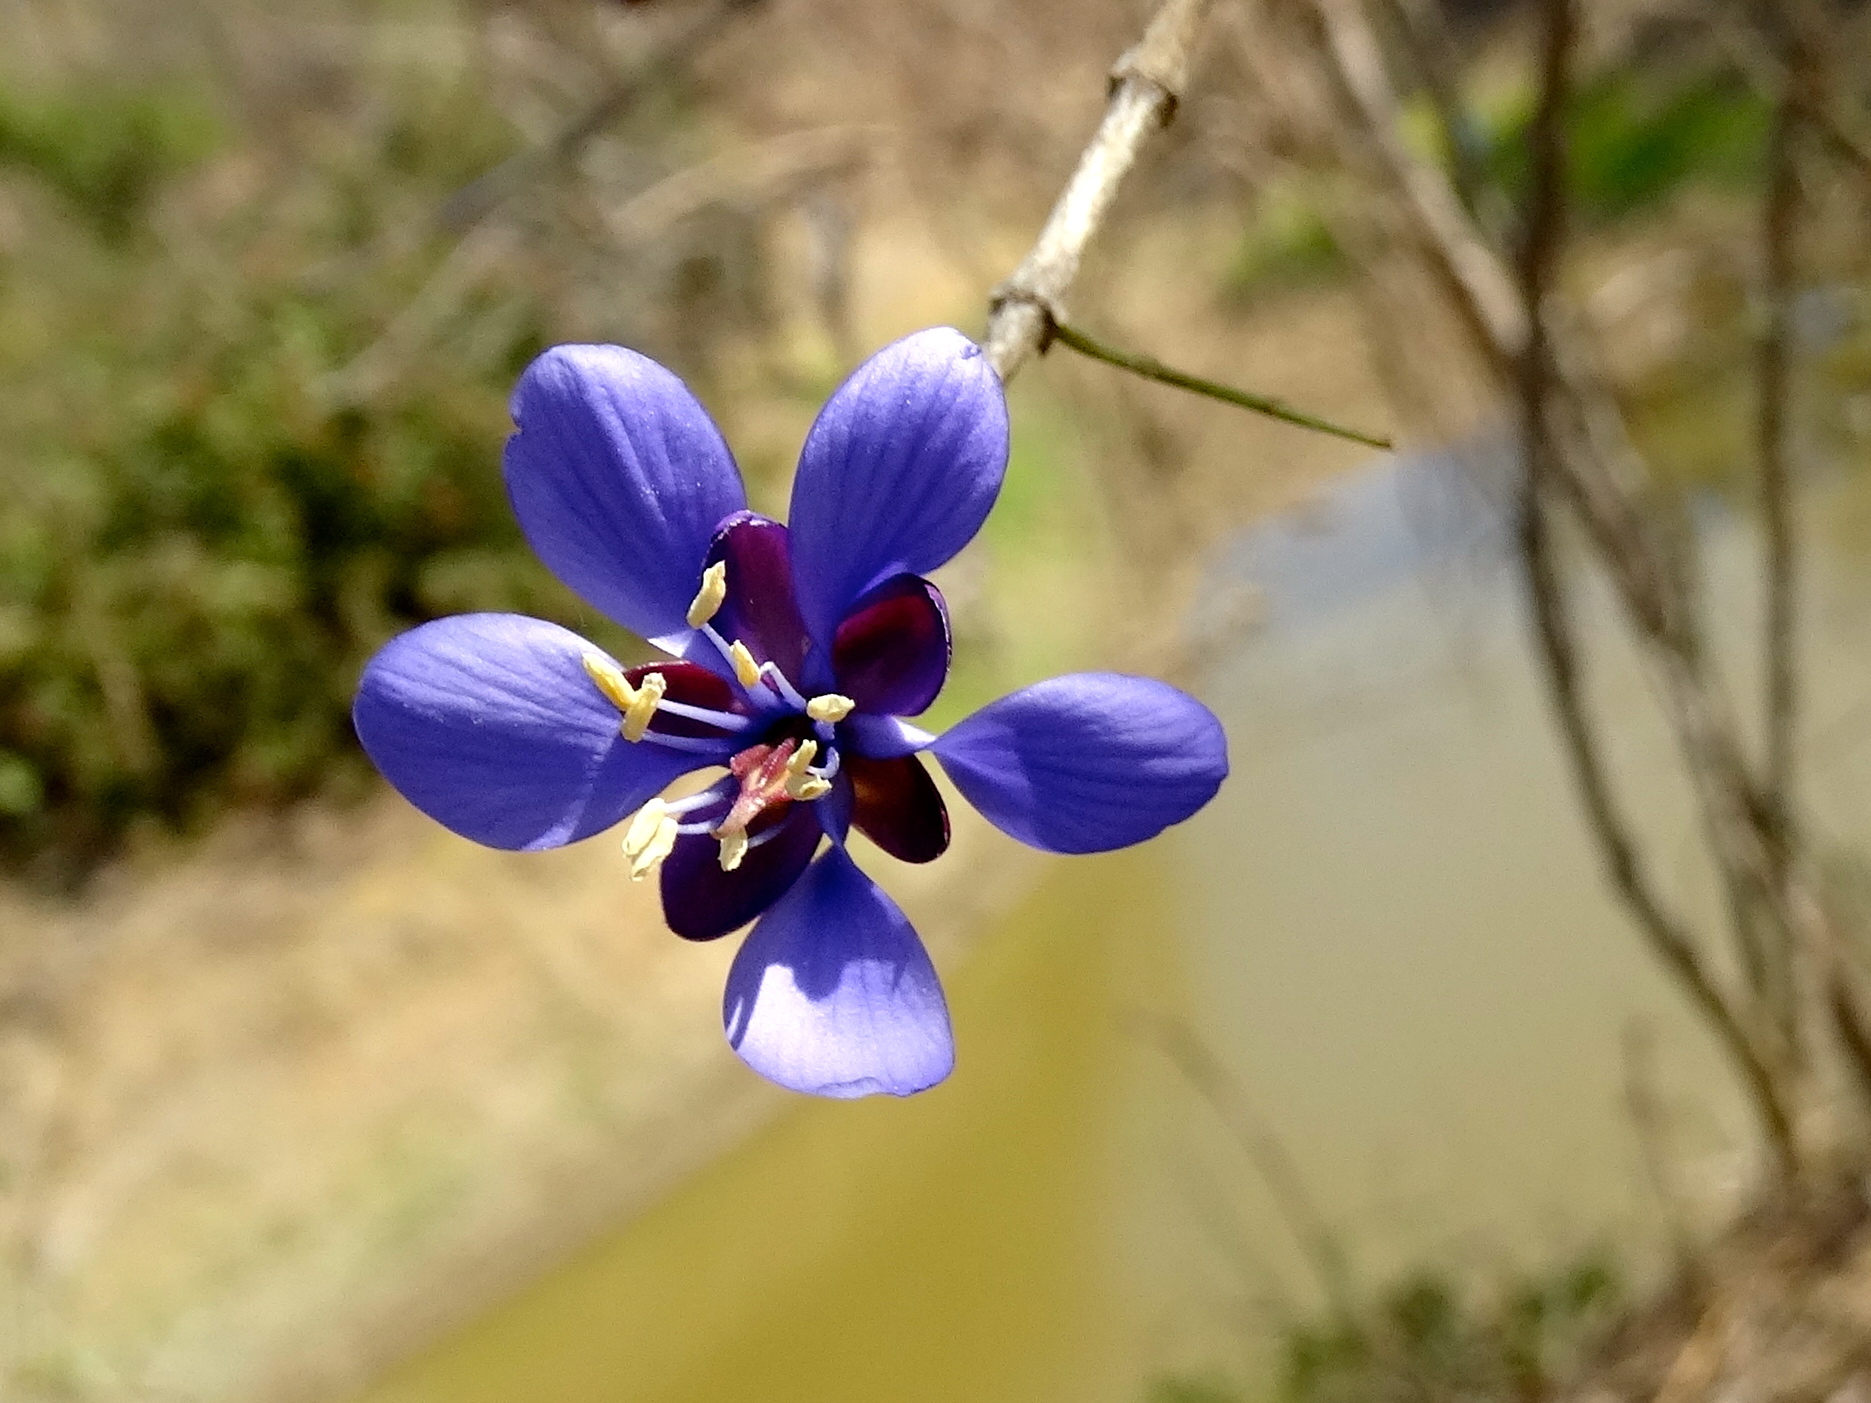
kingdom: Plantae
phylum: Tracheophyta
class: Magnoliopsida
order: Zygophyllales
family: Zygophyllaceae
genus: Guaiacum
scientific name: Guaiacum coulteri
